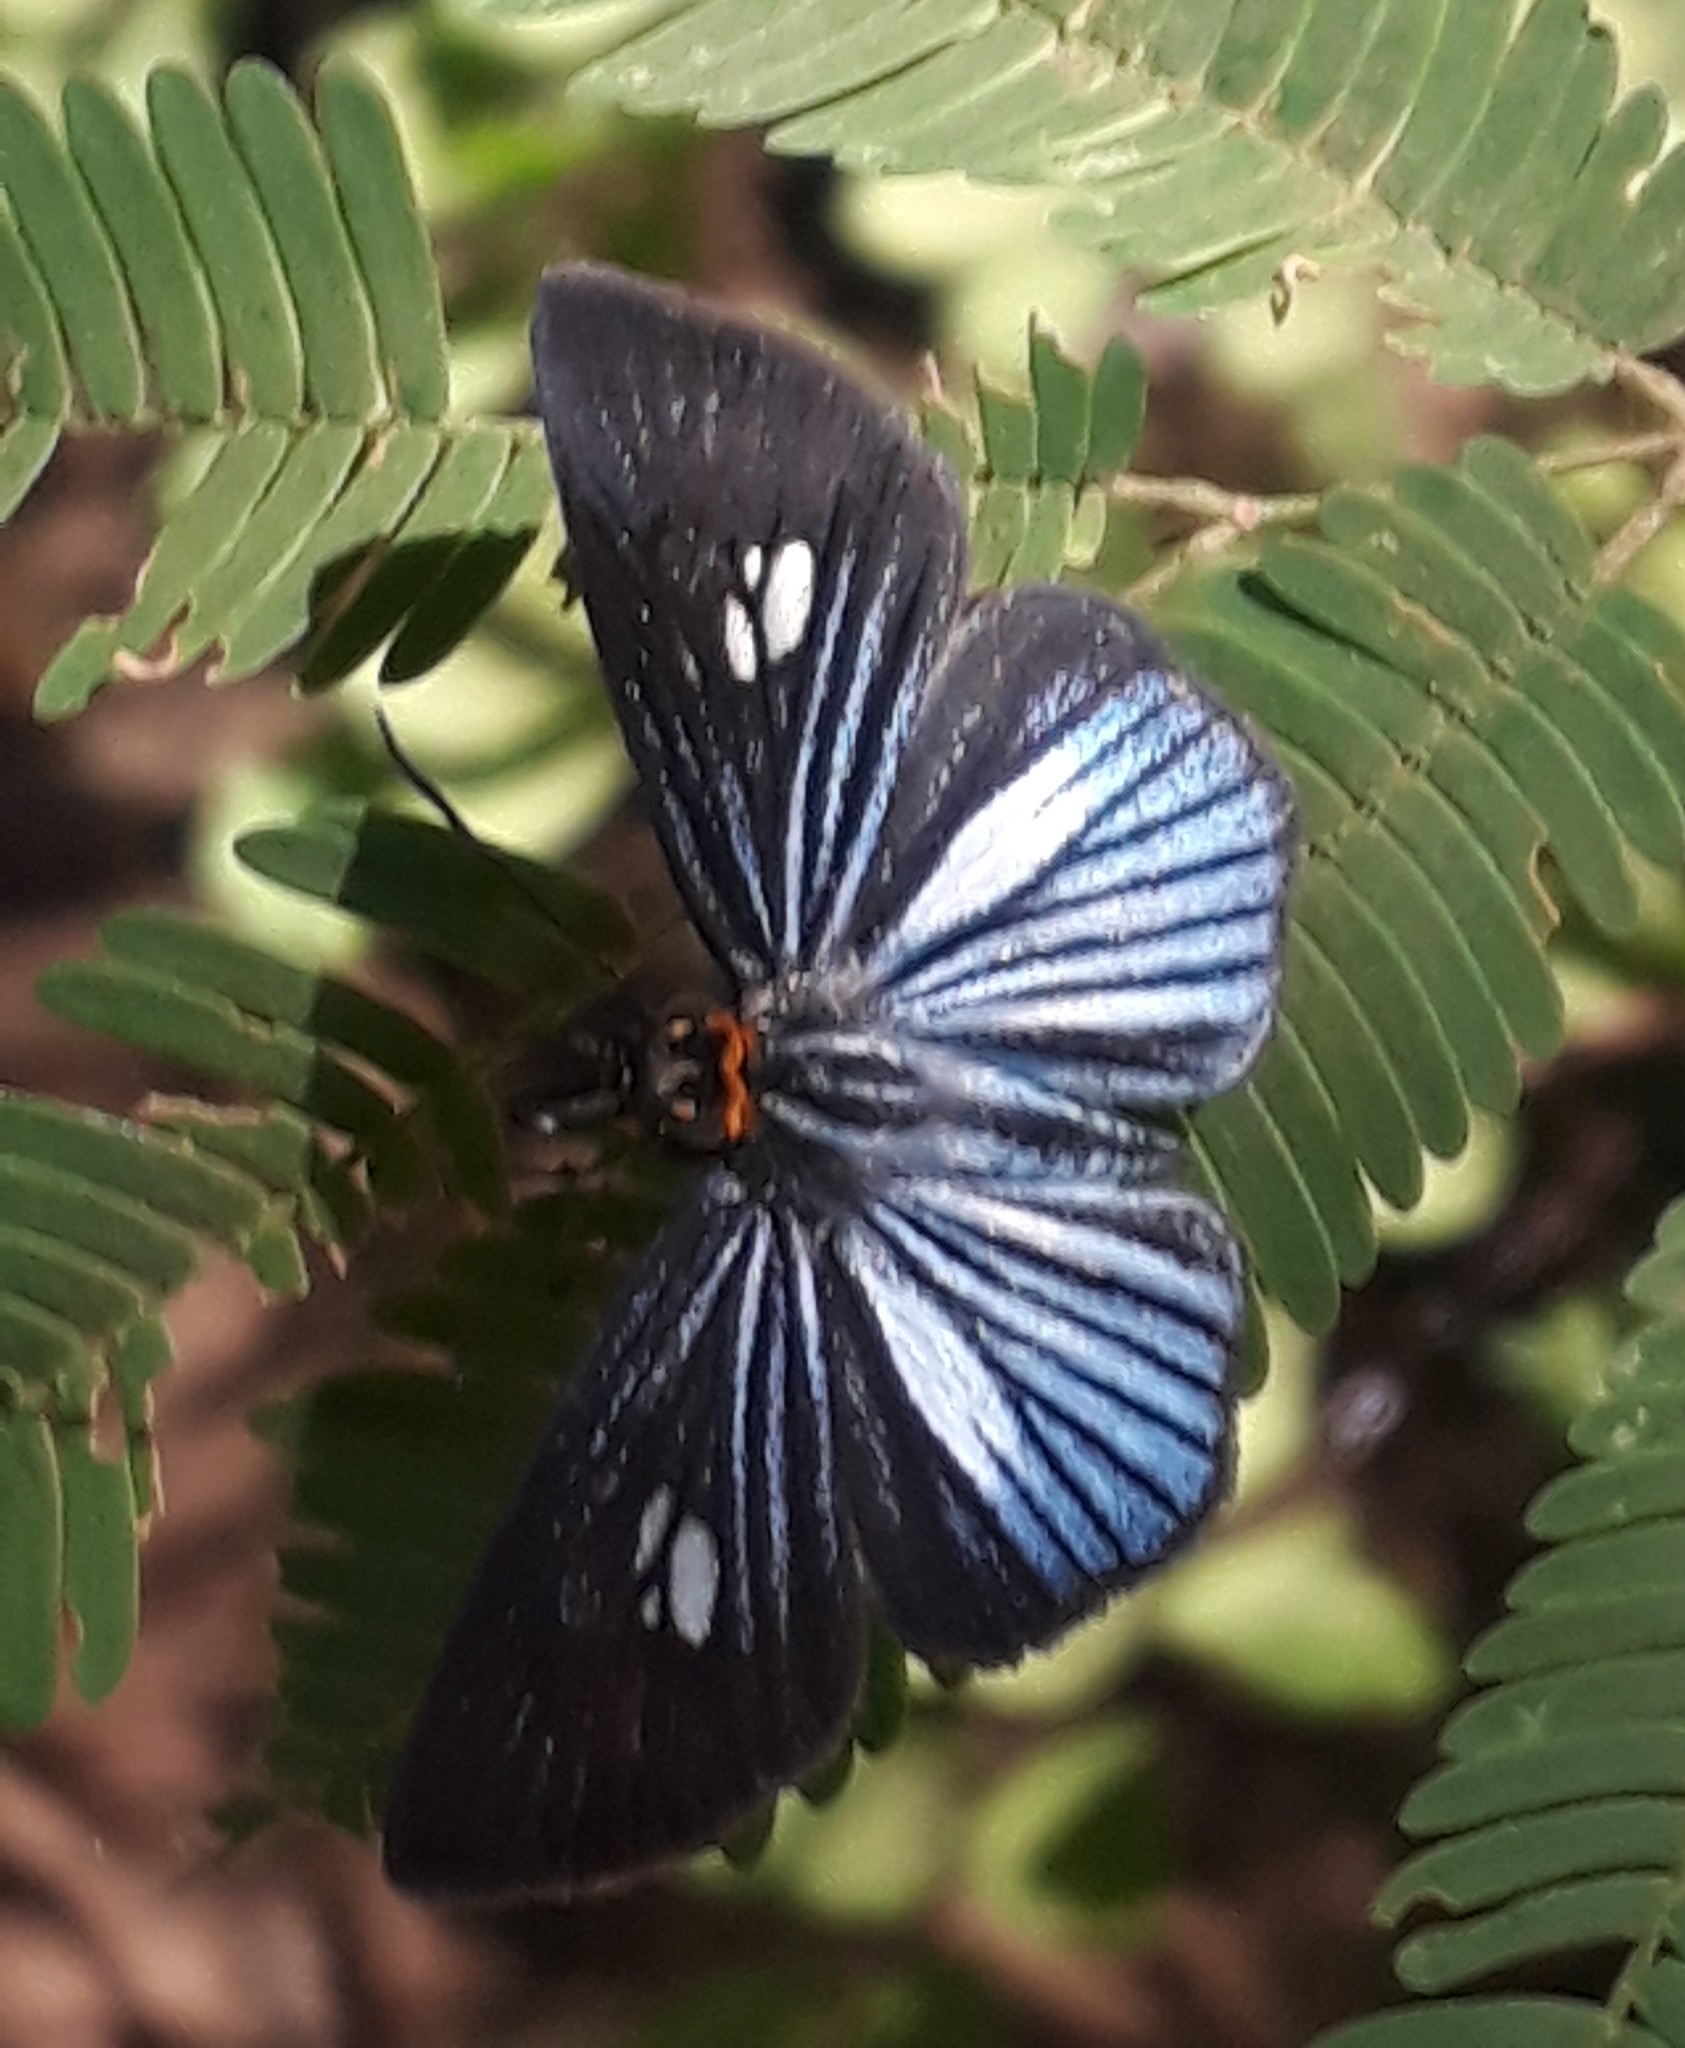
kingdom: Animalia
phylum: Arthropoda
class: Insecta
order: Lepidoptera
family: Hesperiidae
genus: Pythonides
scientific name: Pythonides lancea
